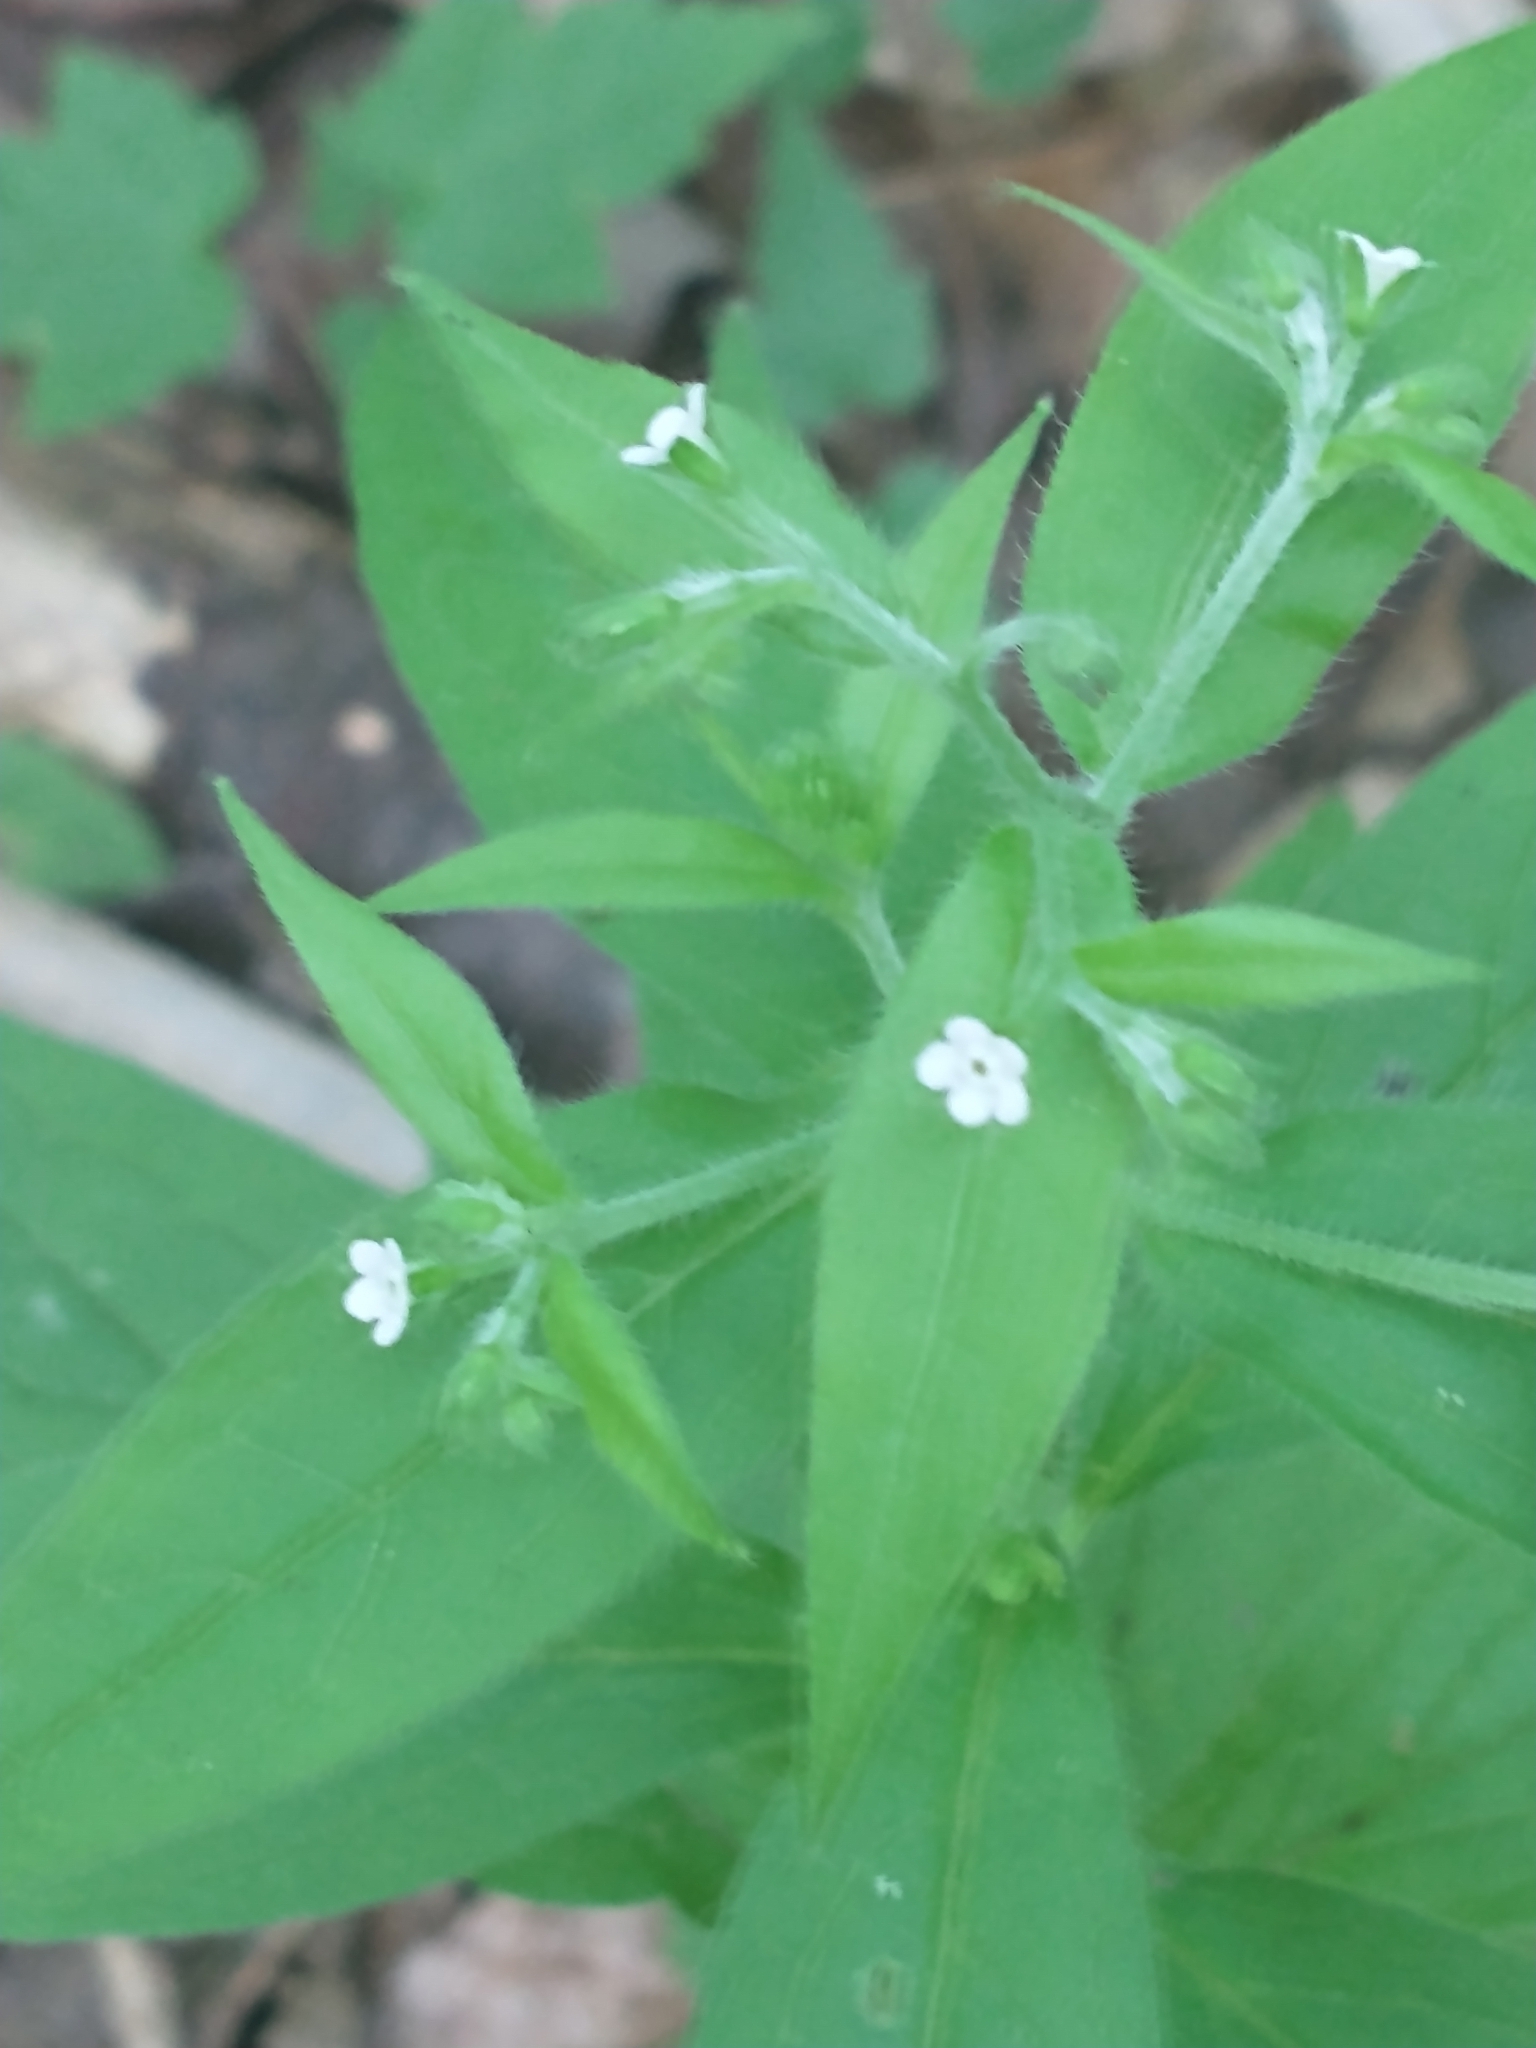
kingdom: Plantae
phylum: Tracheophyta
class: Magnoliopsida
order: Boraginales
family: Boraginaceae
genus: Hackelia
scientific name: Hackelia virginiana
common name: Beggar's-lice
